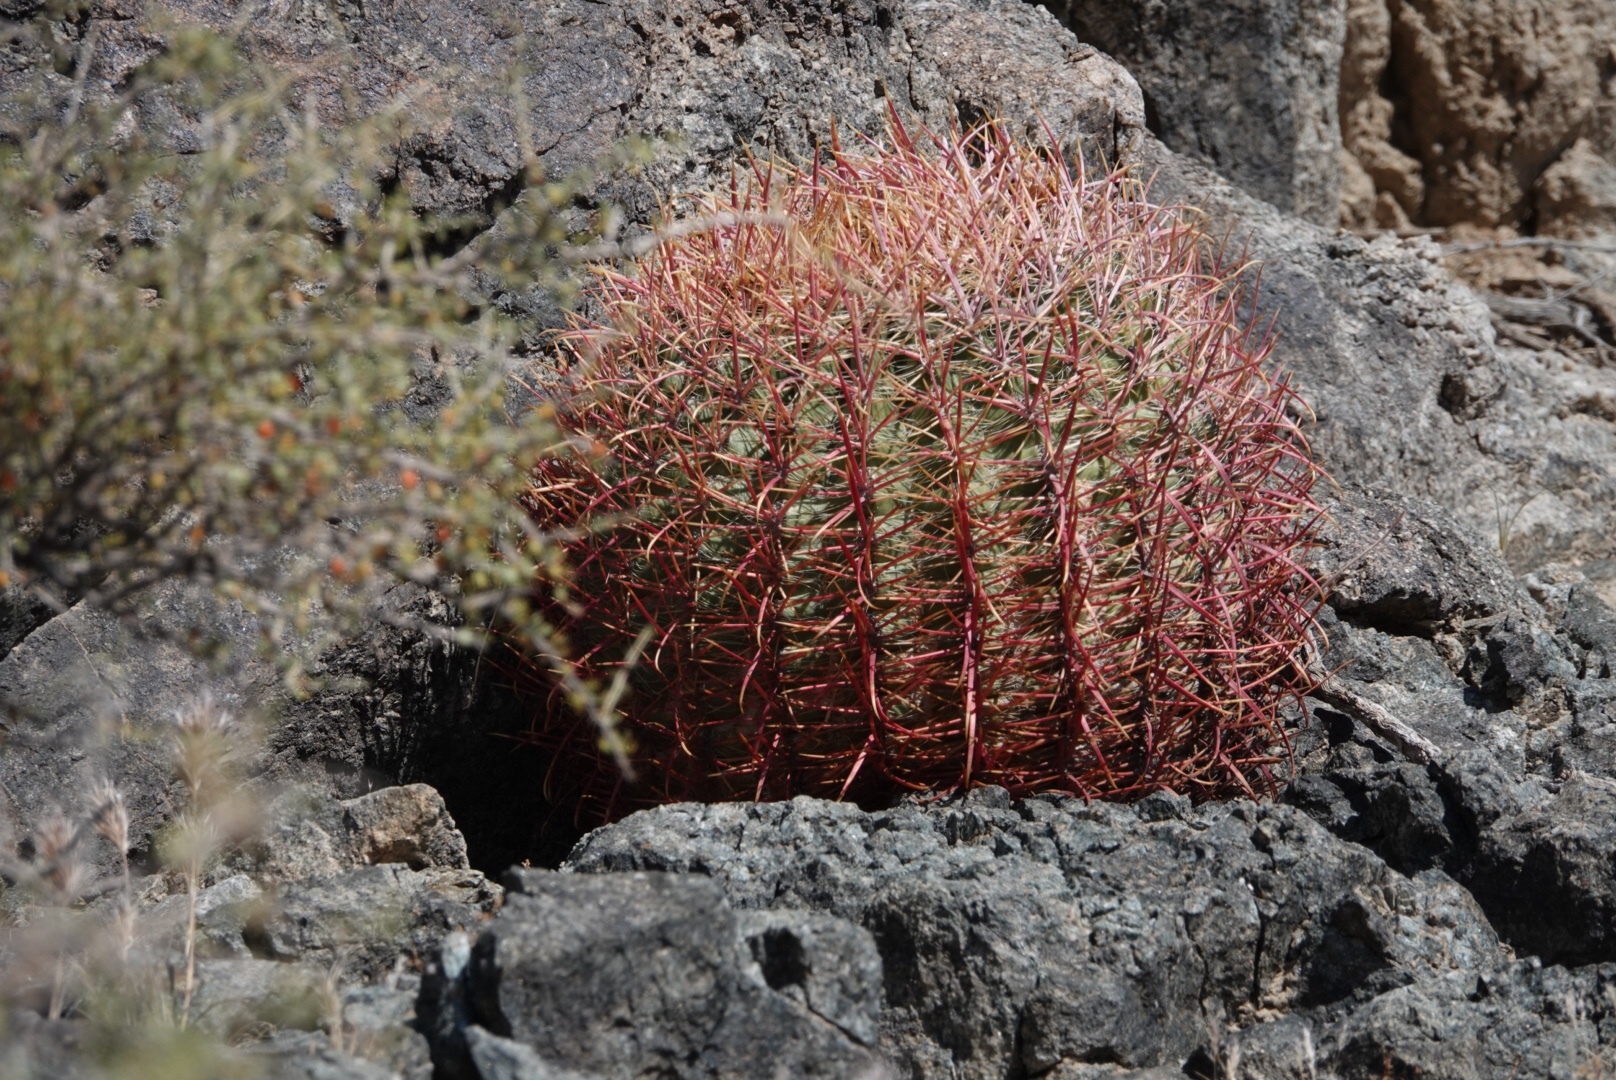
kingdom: Plantae
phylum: Tracheophyta
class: Magnoliopsida
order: Caryophyllales
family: Cactaceae
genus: Ferocactus
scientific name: Ferocactus cylindraceus
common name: California barrel cactus
